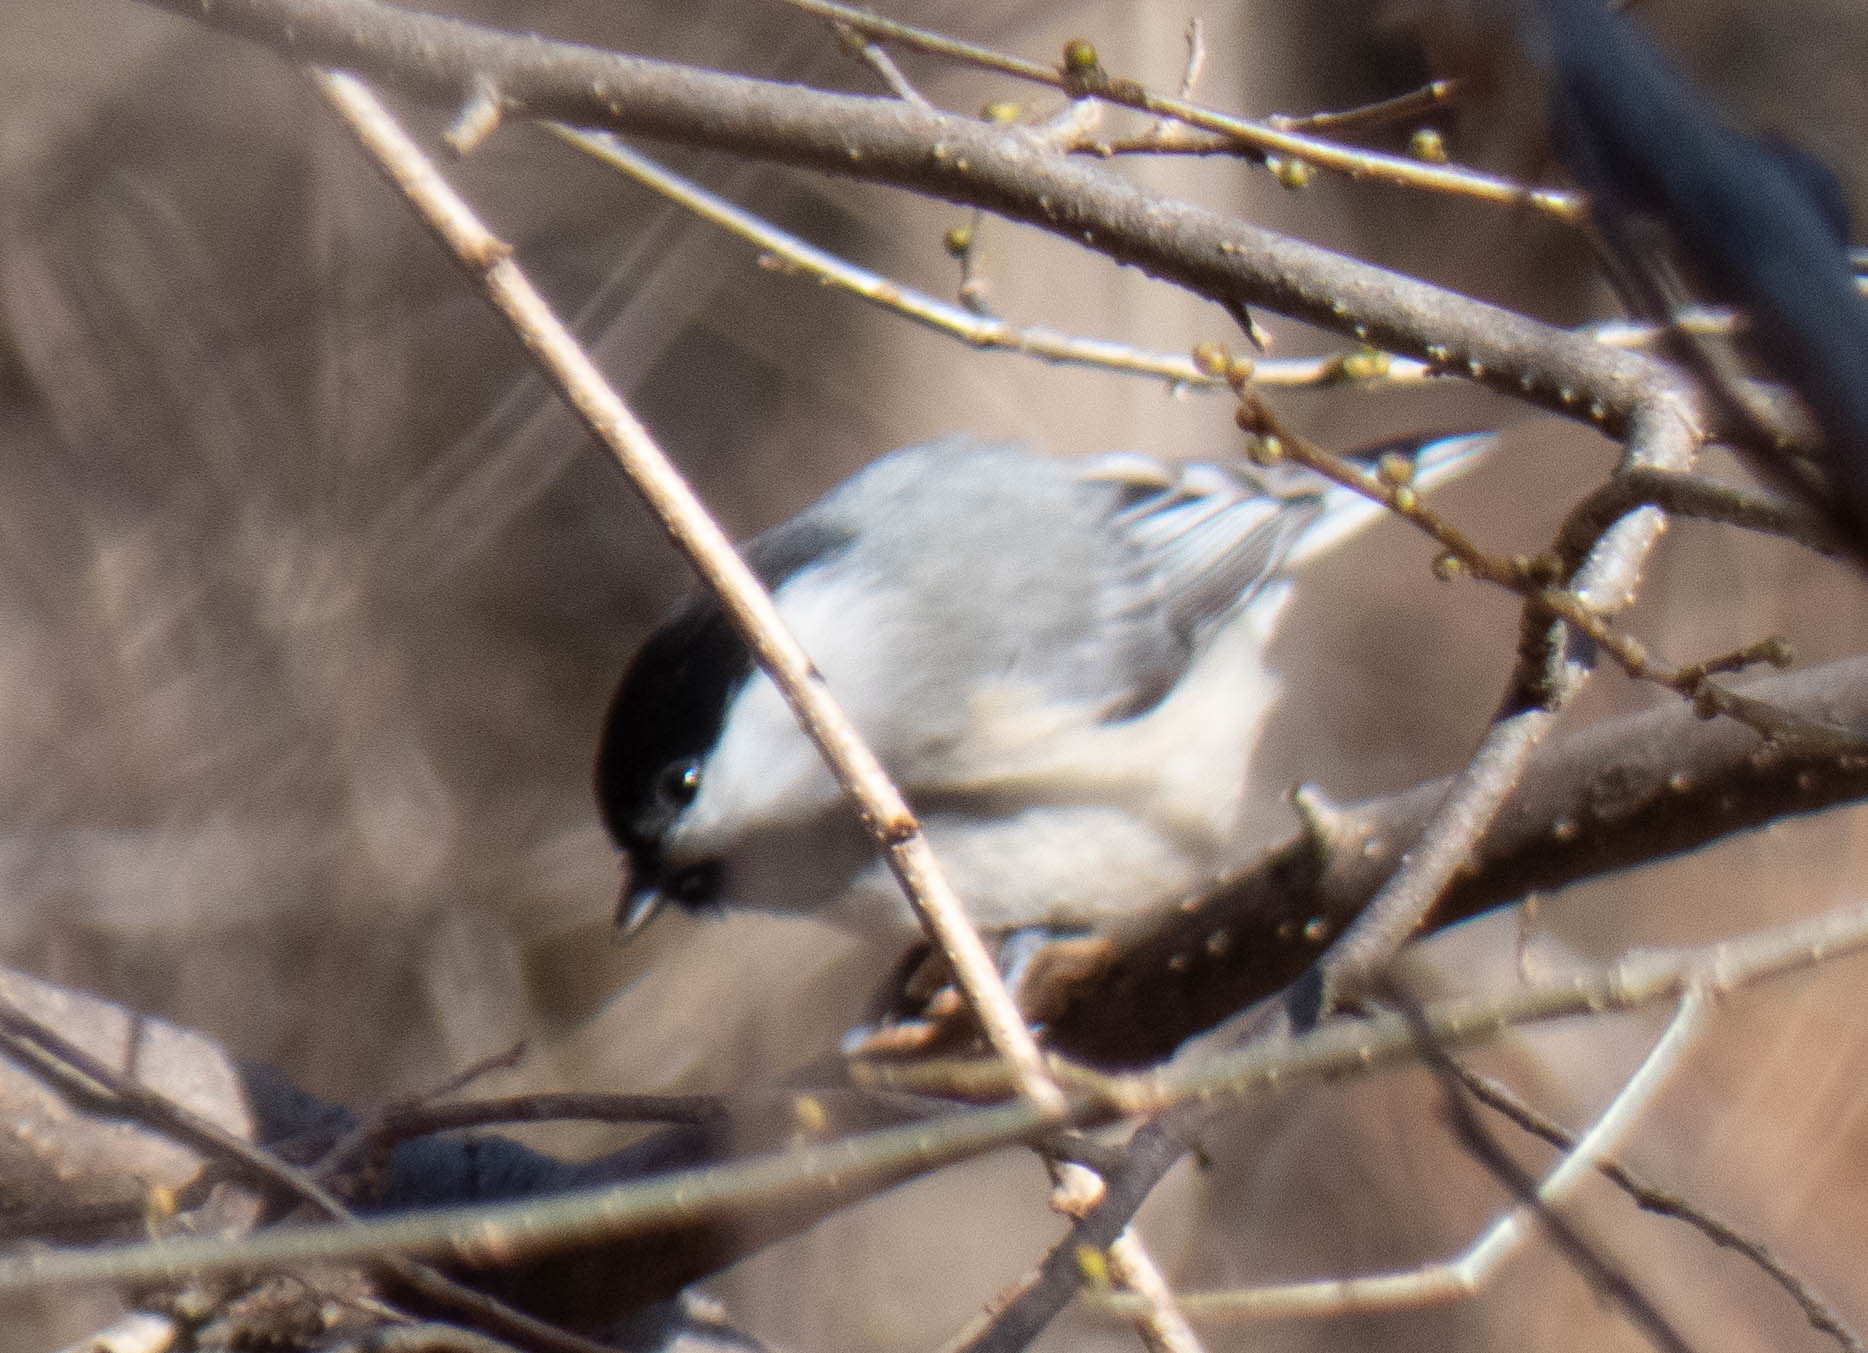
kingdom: Animalia
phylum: Chordata
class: Aves
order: Passeriformes
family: Paridae
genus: Poecile
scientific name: Poecile carolinensis
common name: Carolina chickadee
